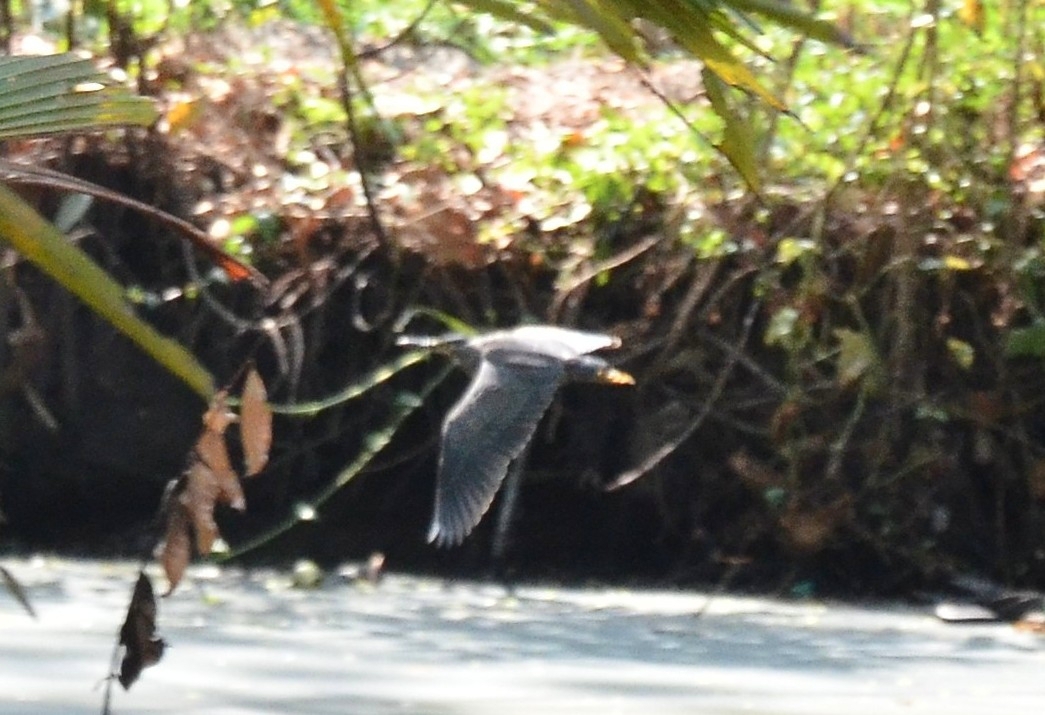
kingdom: Animalia
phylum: Chordata
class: Aves
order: Pelecaniformes
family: Ardeidae
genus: Butorides
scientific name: Butorides striata
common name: Striated heron
